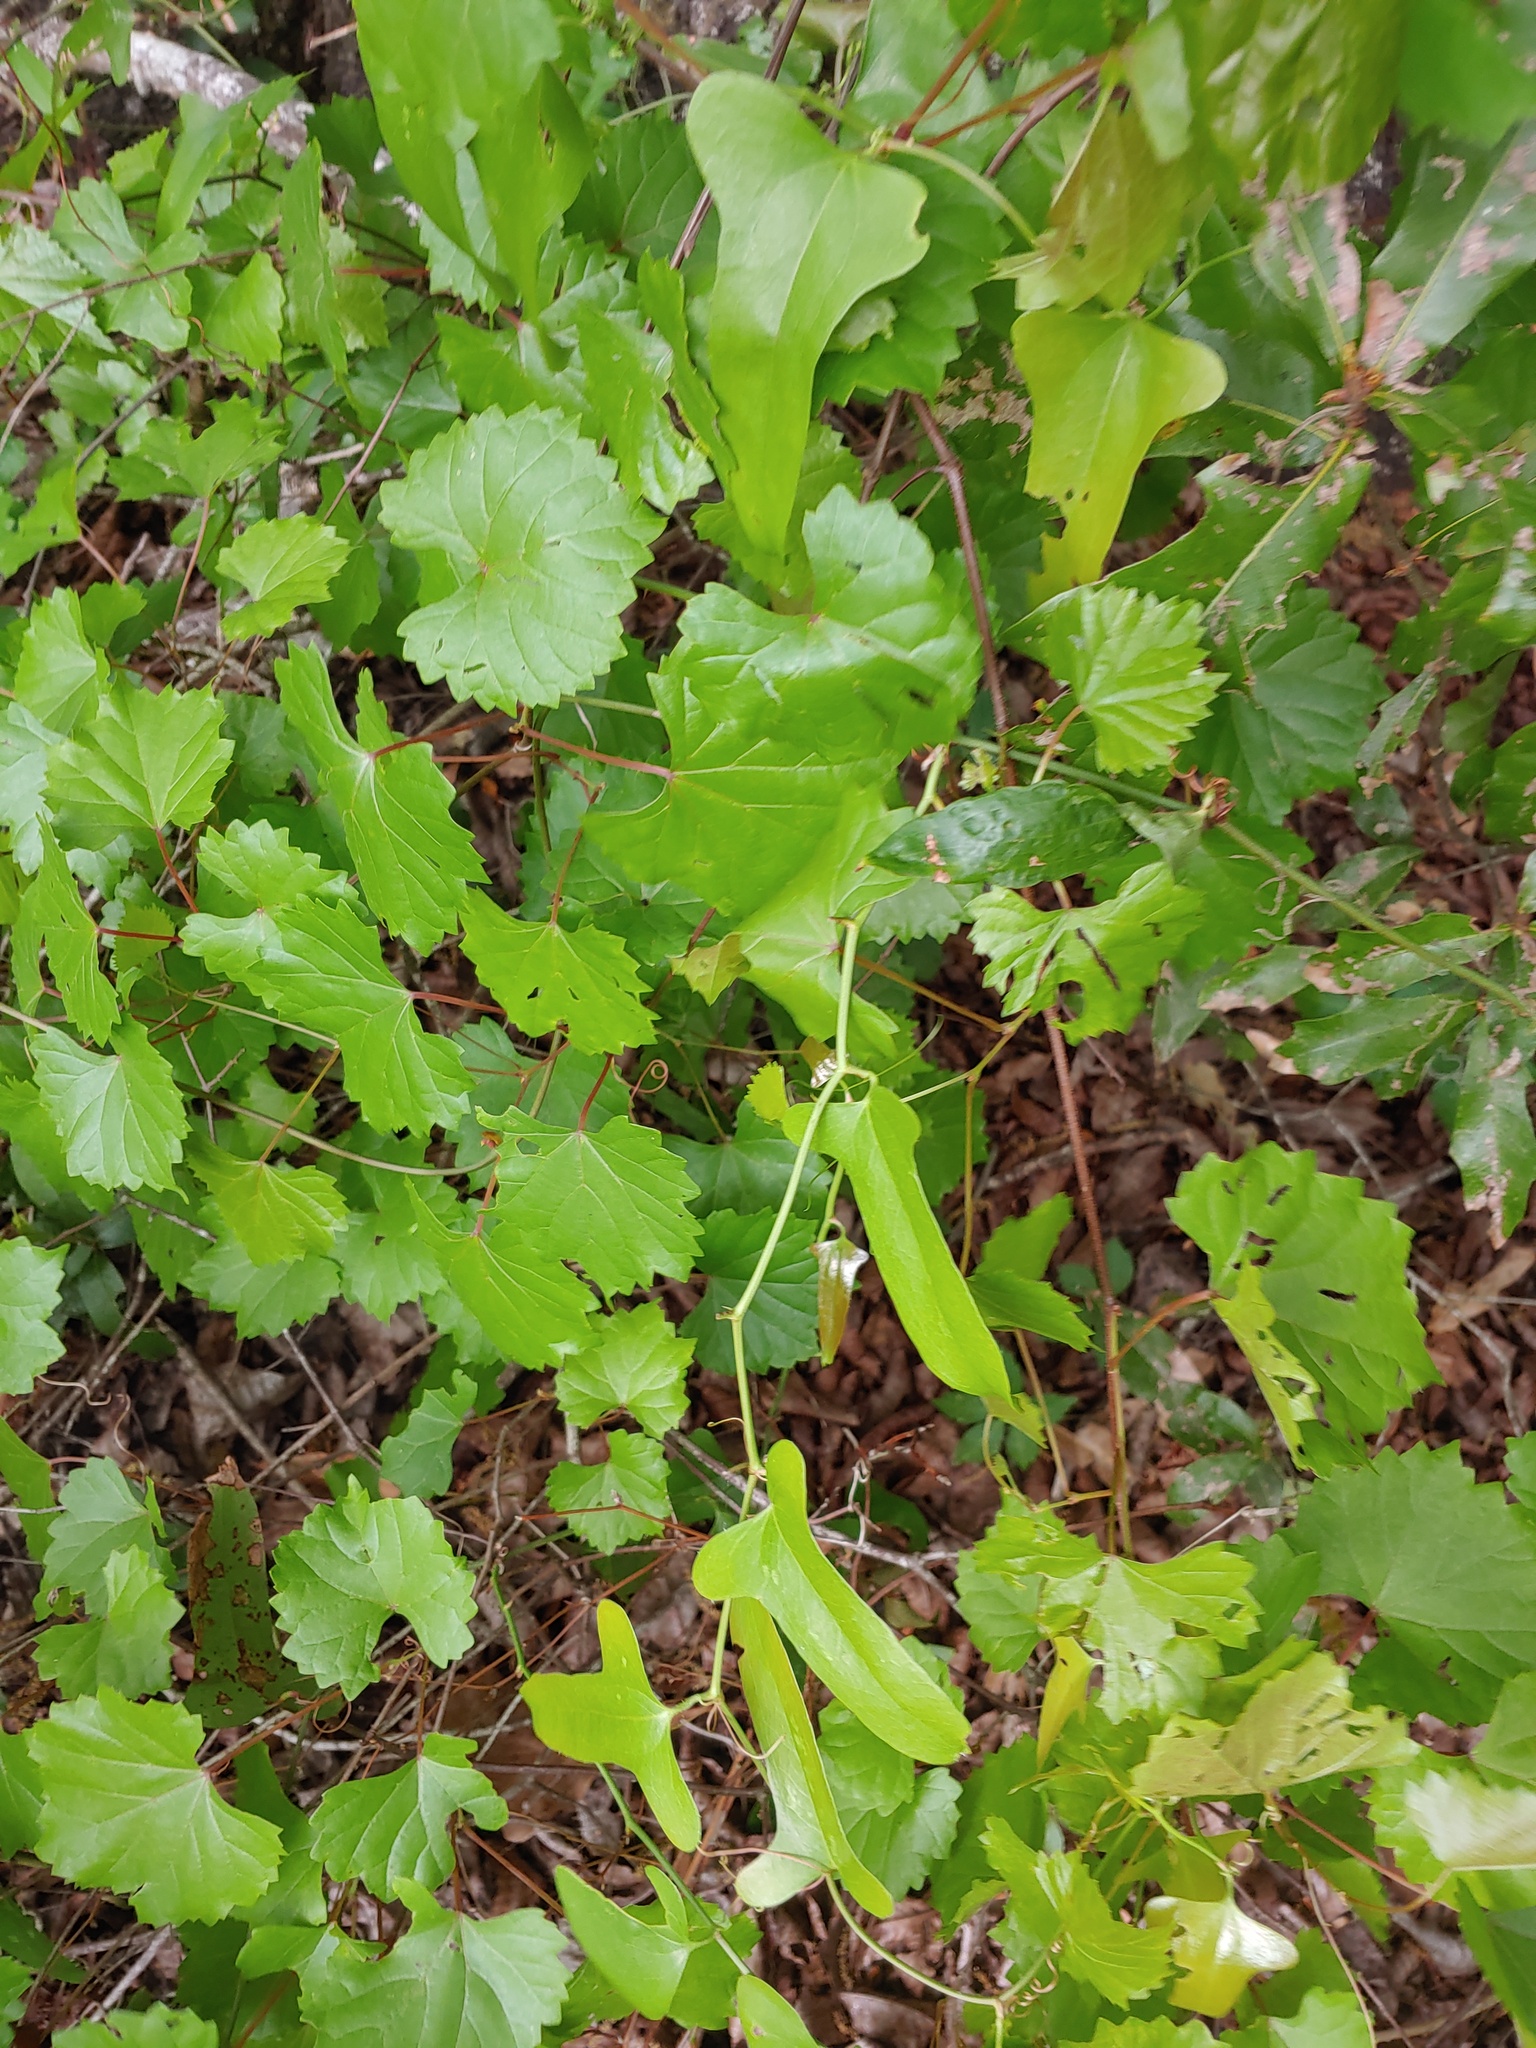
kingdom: Plantae
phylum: Tracheophyta
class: Magnoliopsida
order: Vitales
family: Vitaceae
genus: Vitis
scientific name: Vitis rotundifolia
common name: Muscadine grape
